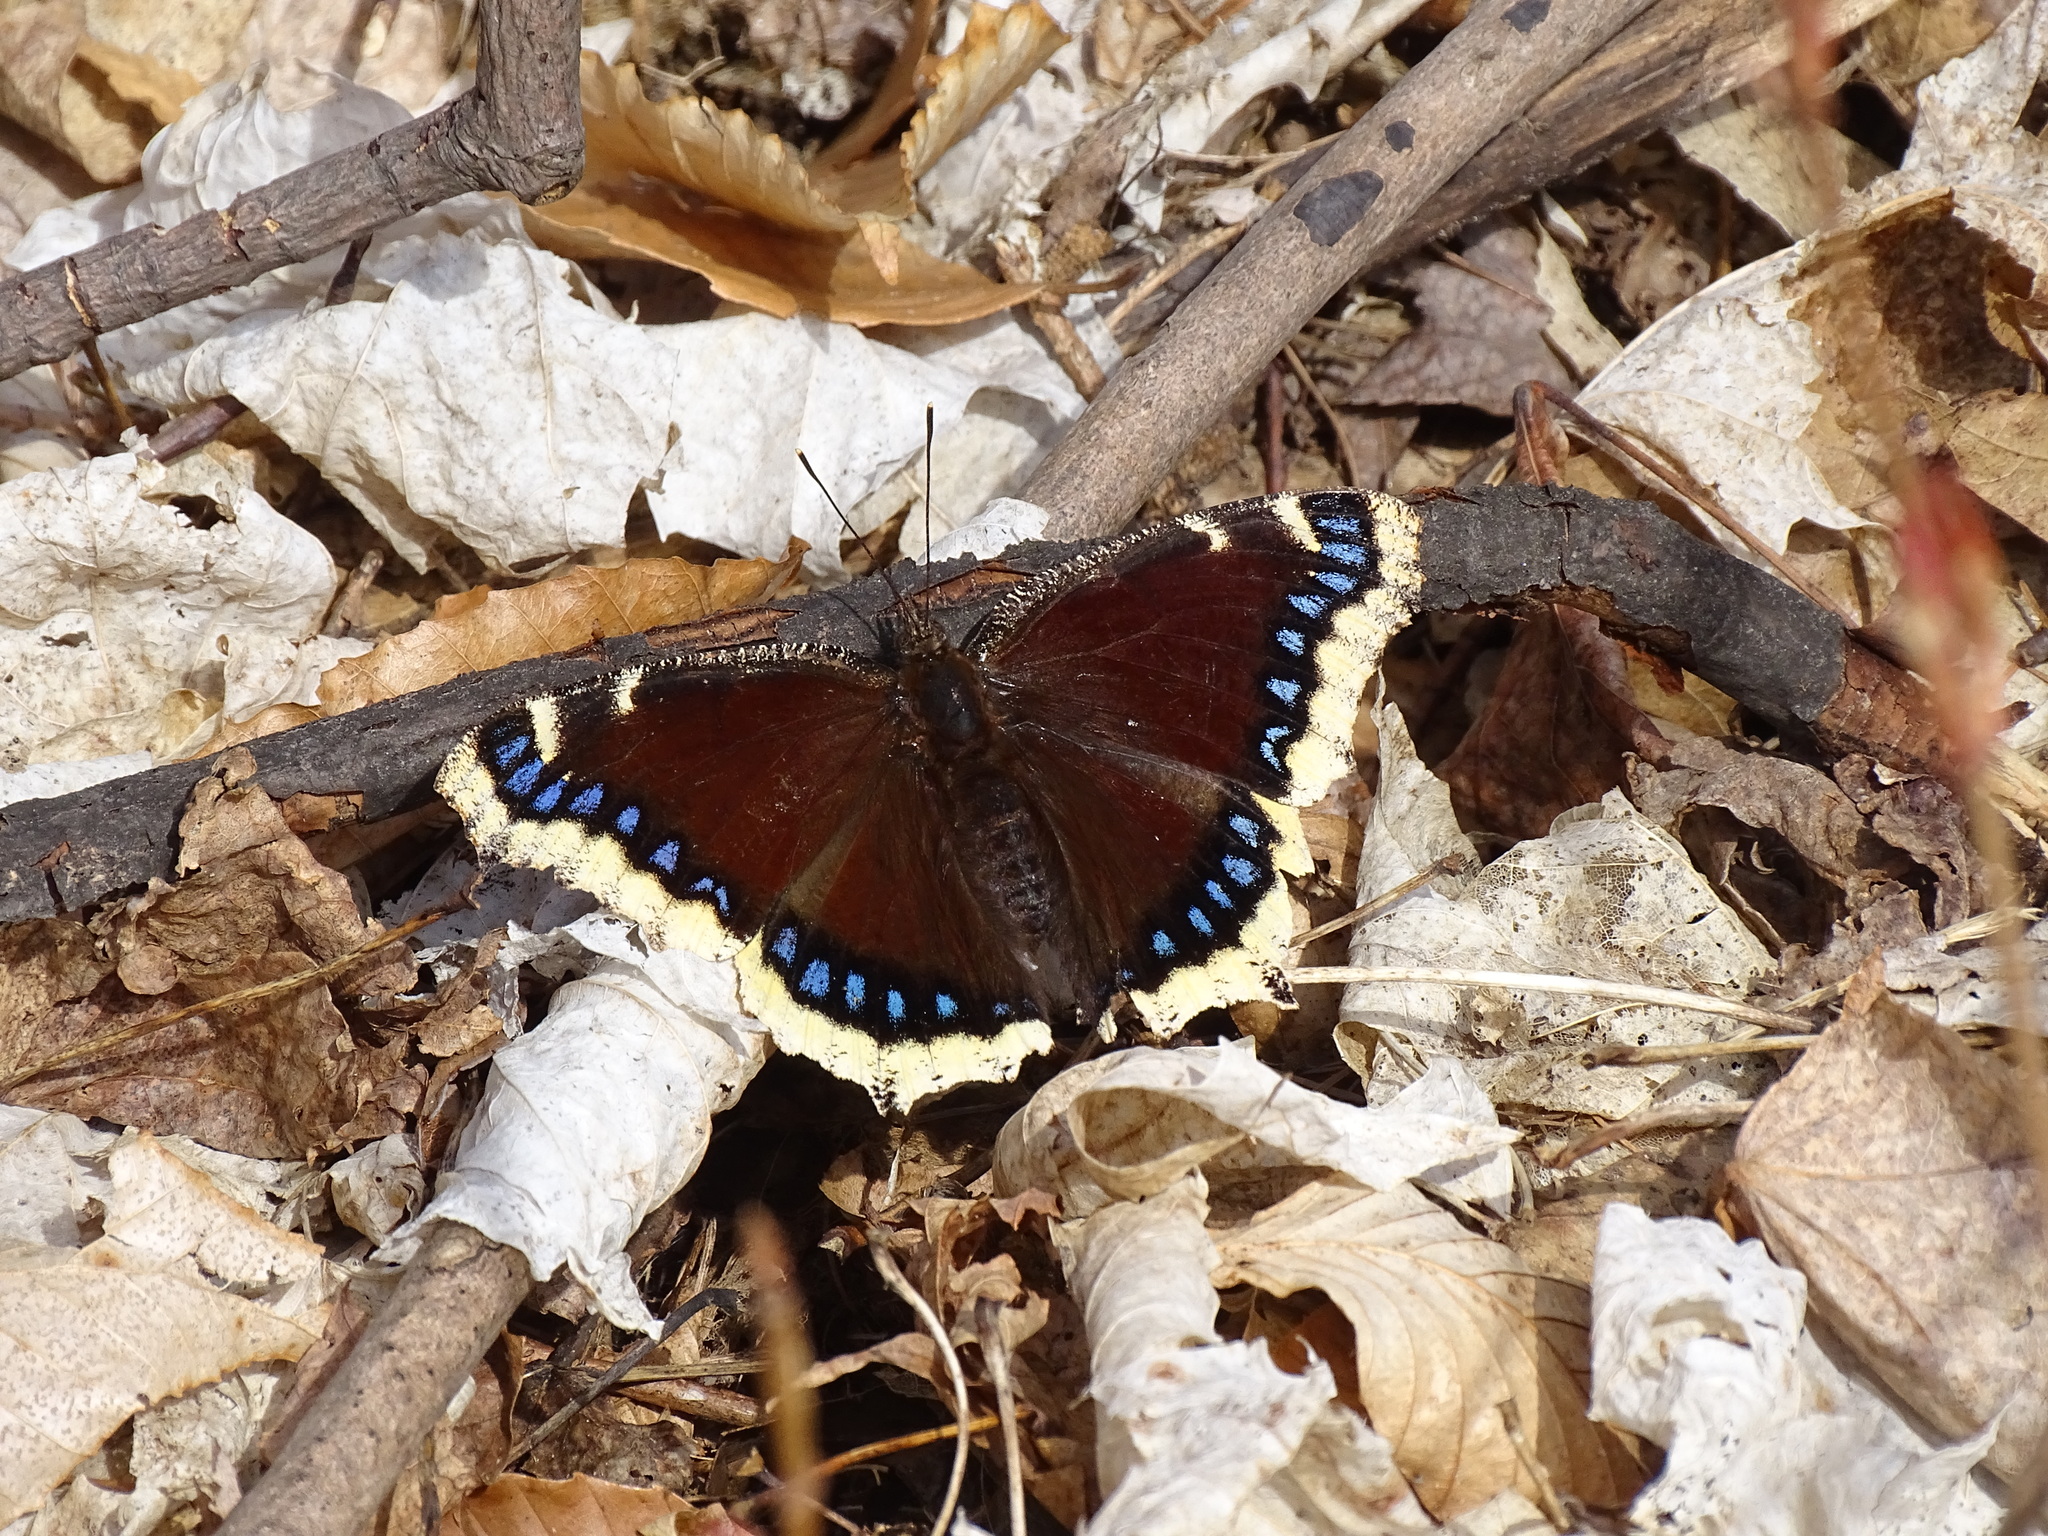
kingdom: Animalia
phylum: Arthropoda
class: Insecta
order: Lepidoptera
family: Nymphalidae
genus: Nymphalis
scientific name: Nymphalis antiopa
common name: Camberwell beauty
